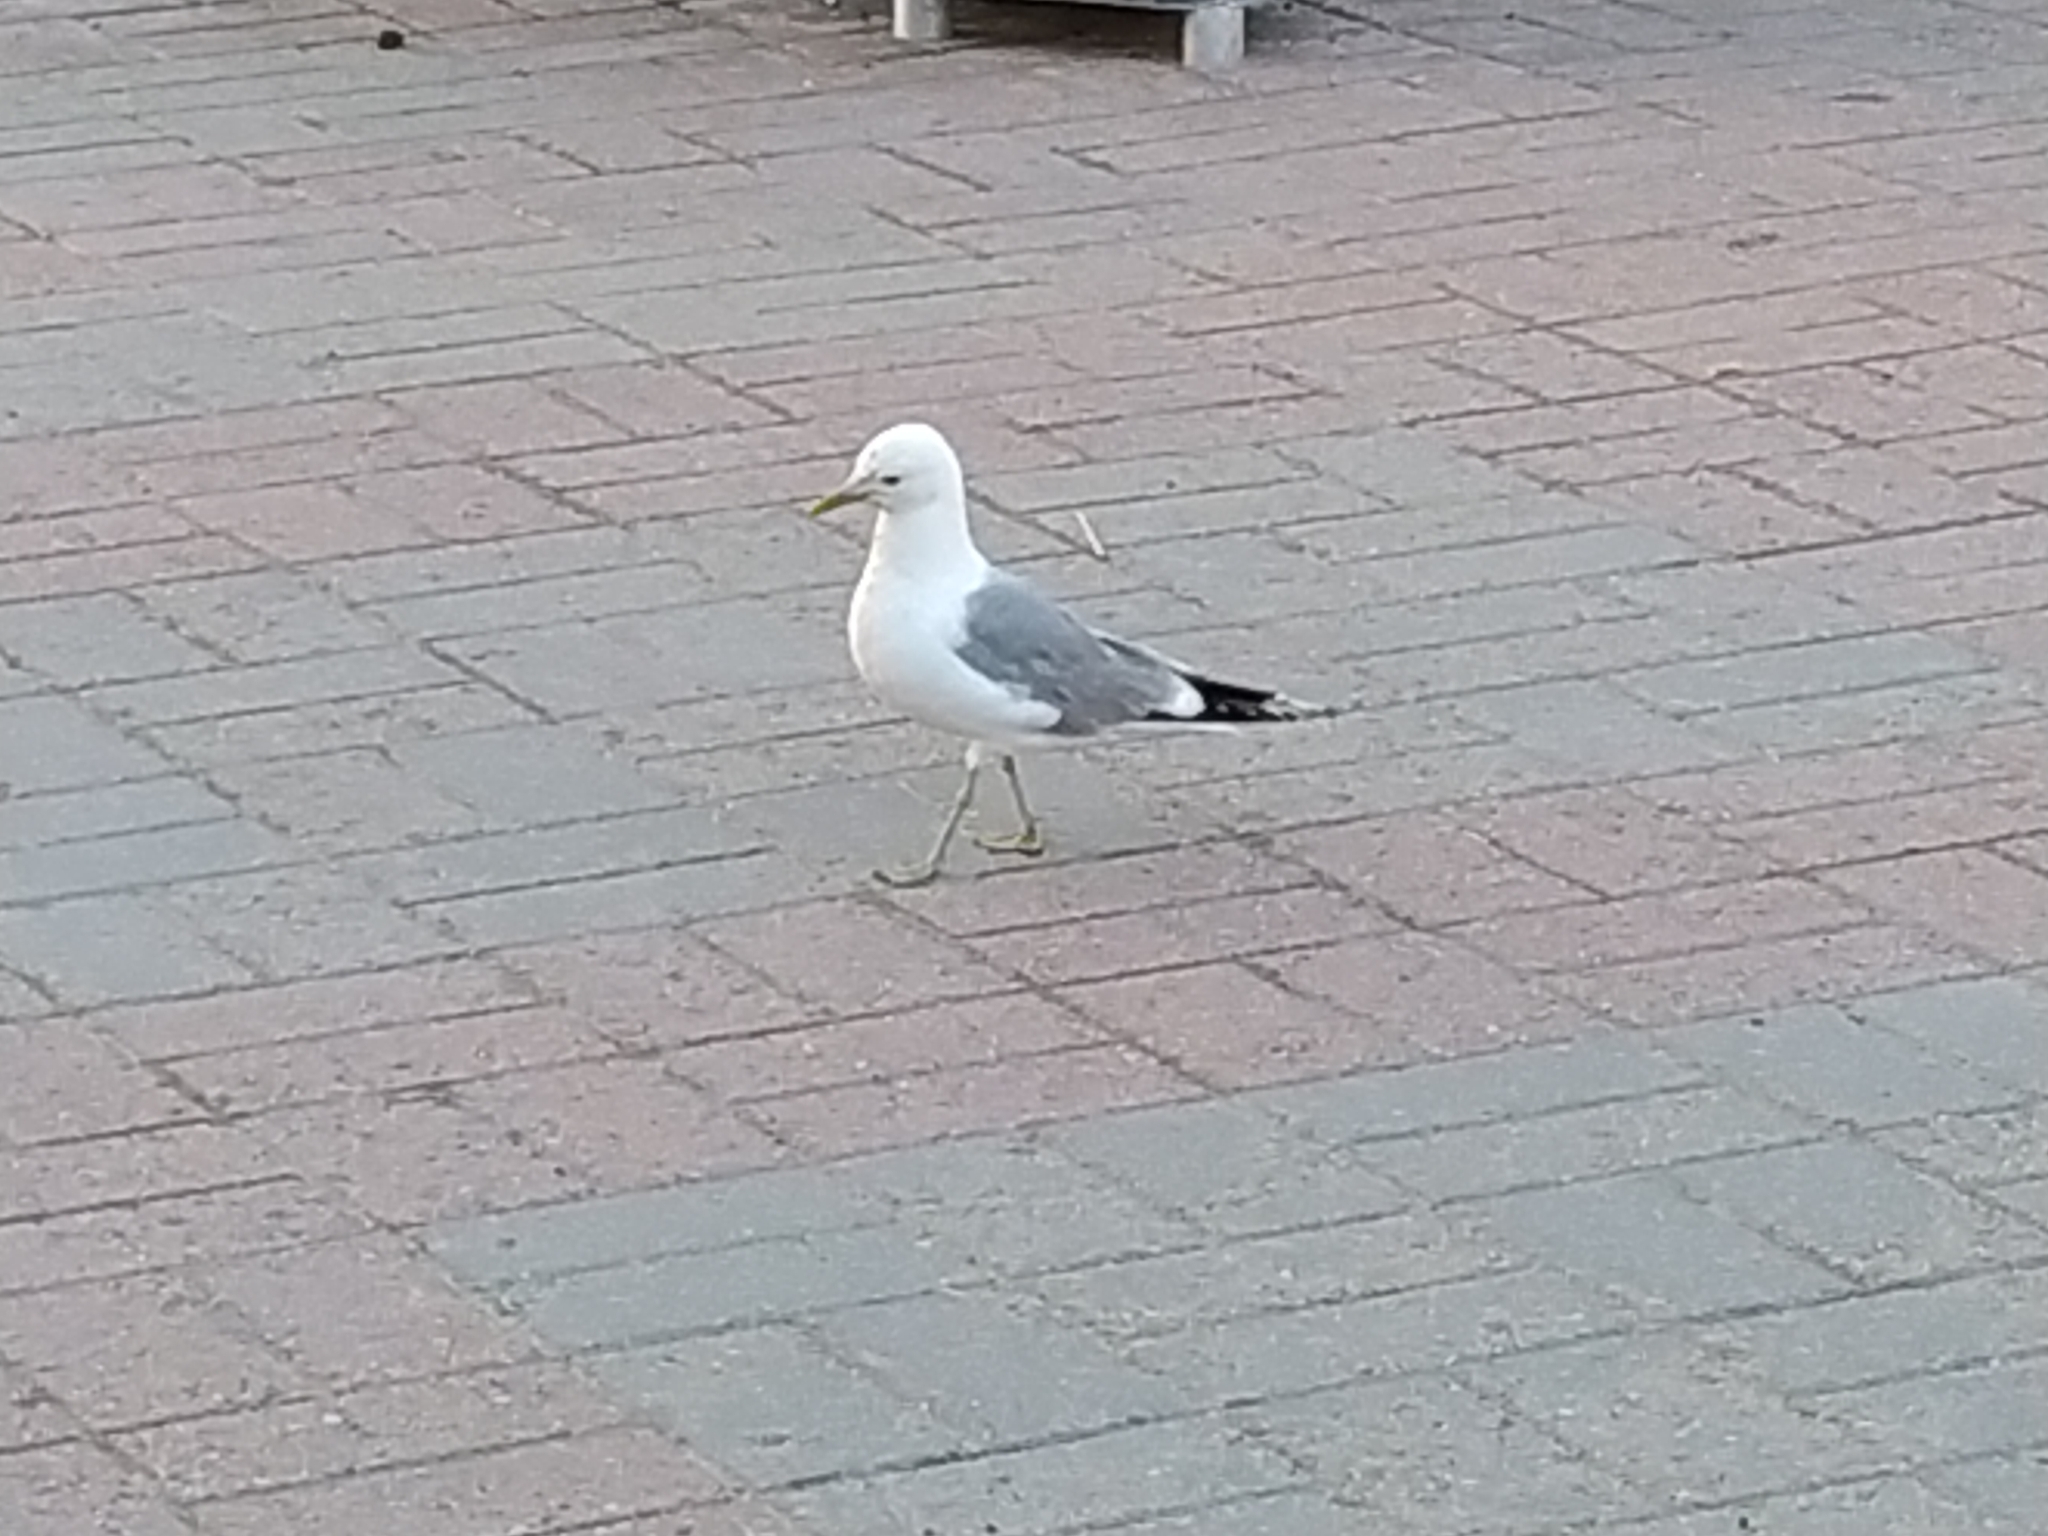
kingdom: Animalia
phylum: Chordata
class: Aves
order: Charadriiformes
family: Laridae
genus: Larus
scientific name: Larus canus
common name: Mew gull
